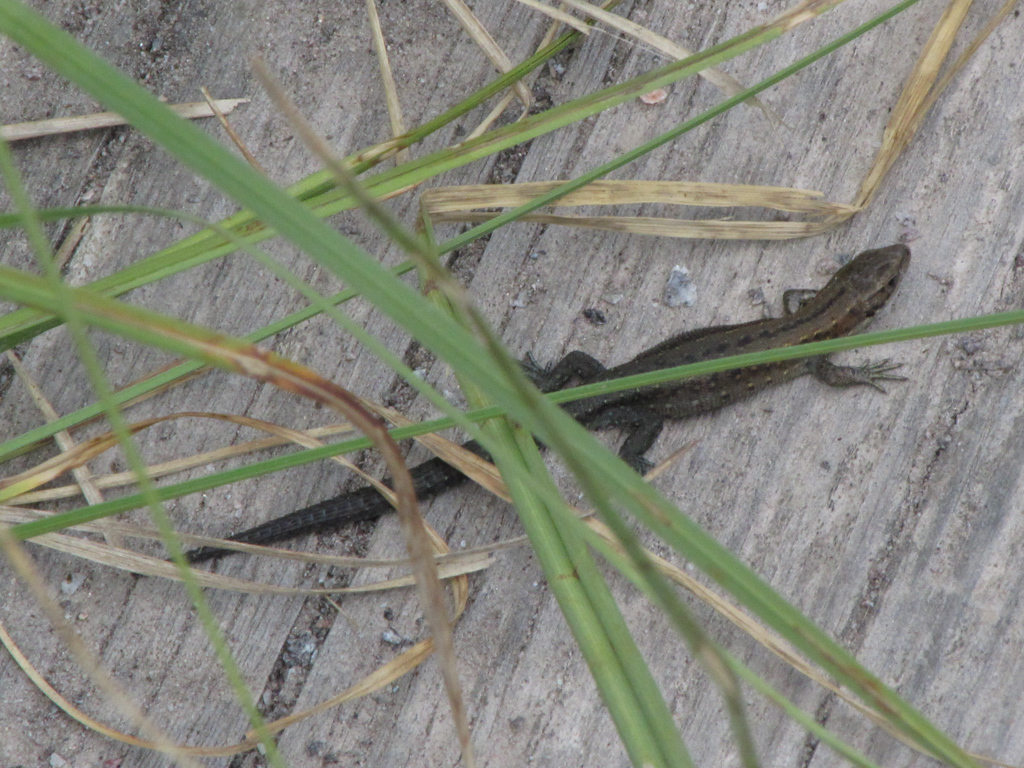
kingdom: Animalia
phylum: Chordata
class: Squamata
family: Lacertidae
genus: Zootoca
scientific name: Zootoca vivipara
